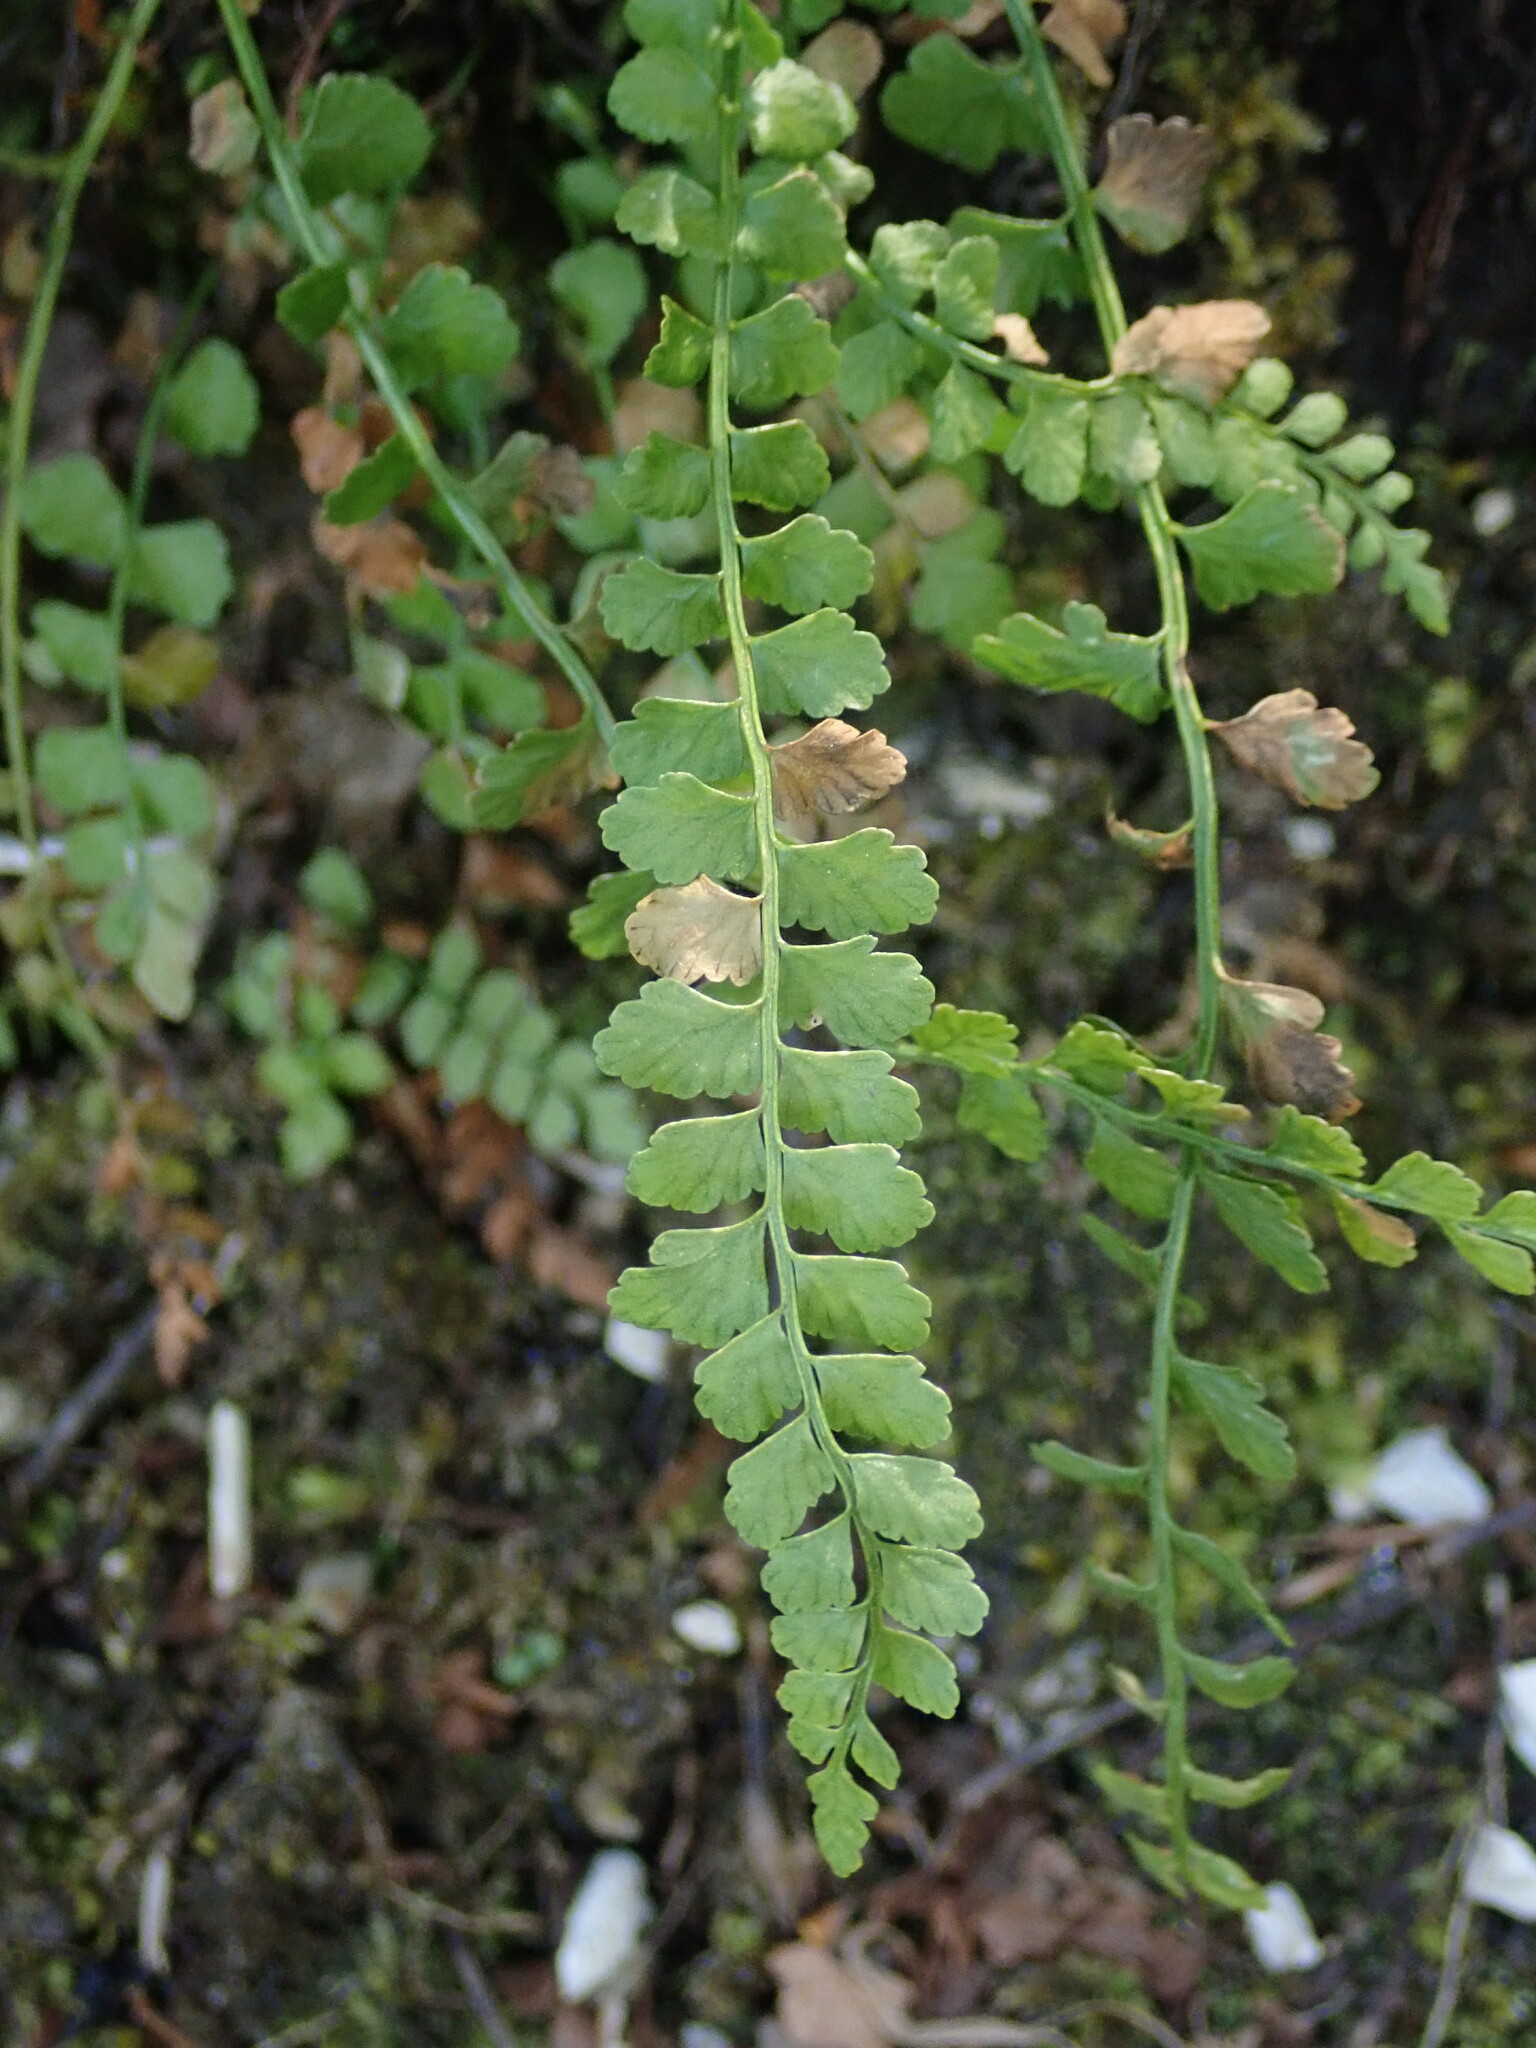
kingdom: Plantae
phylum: Tracheophyta
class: Polypodiopsida
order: Polypodiales
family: Aspleniaceae
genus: Asplenium
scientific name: Asplenium viride
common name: Green spleenwort
